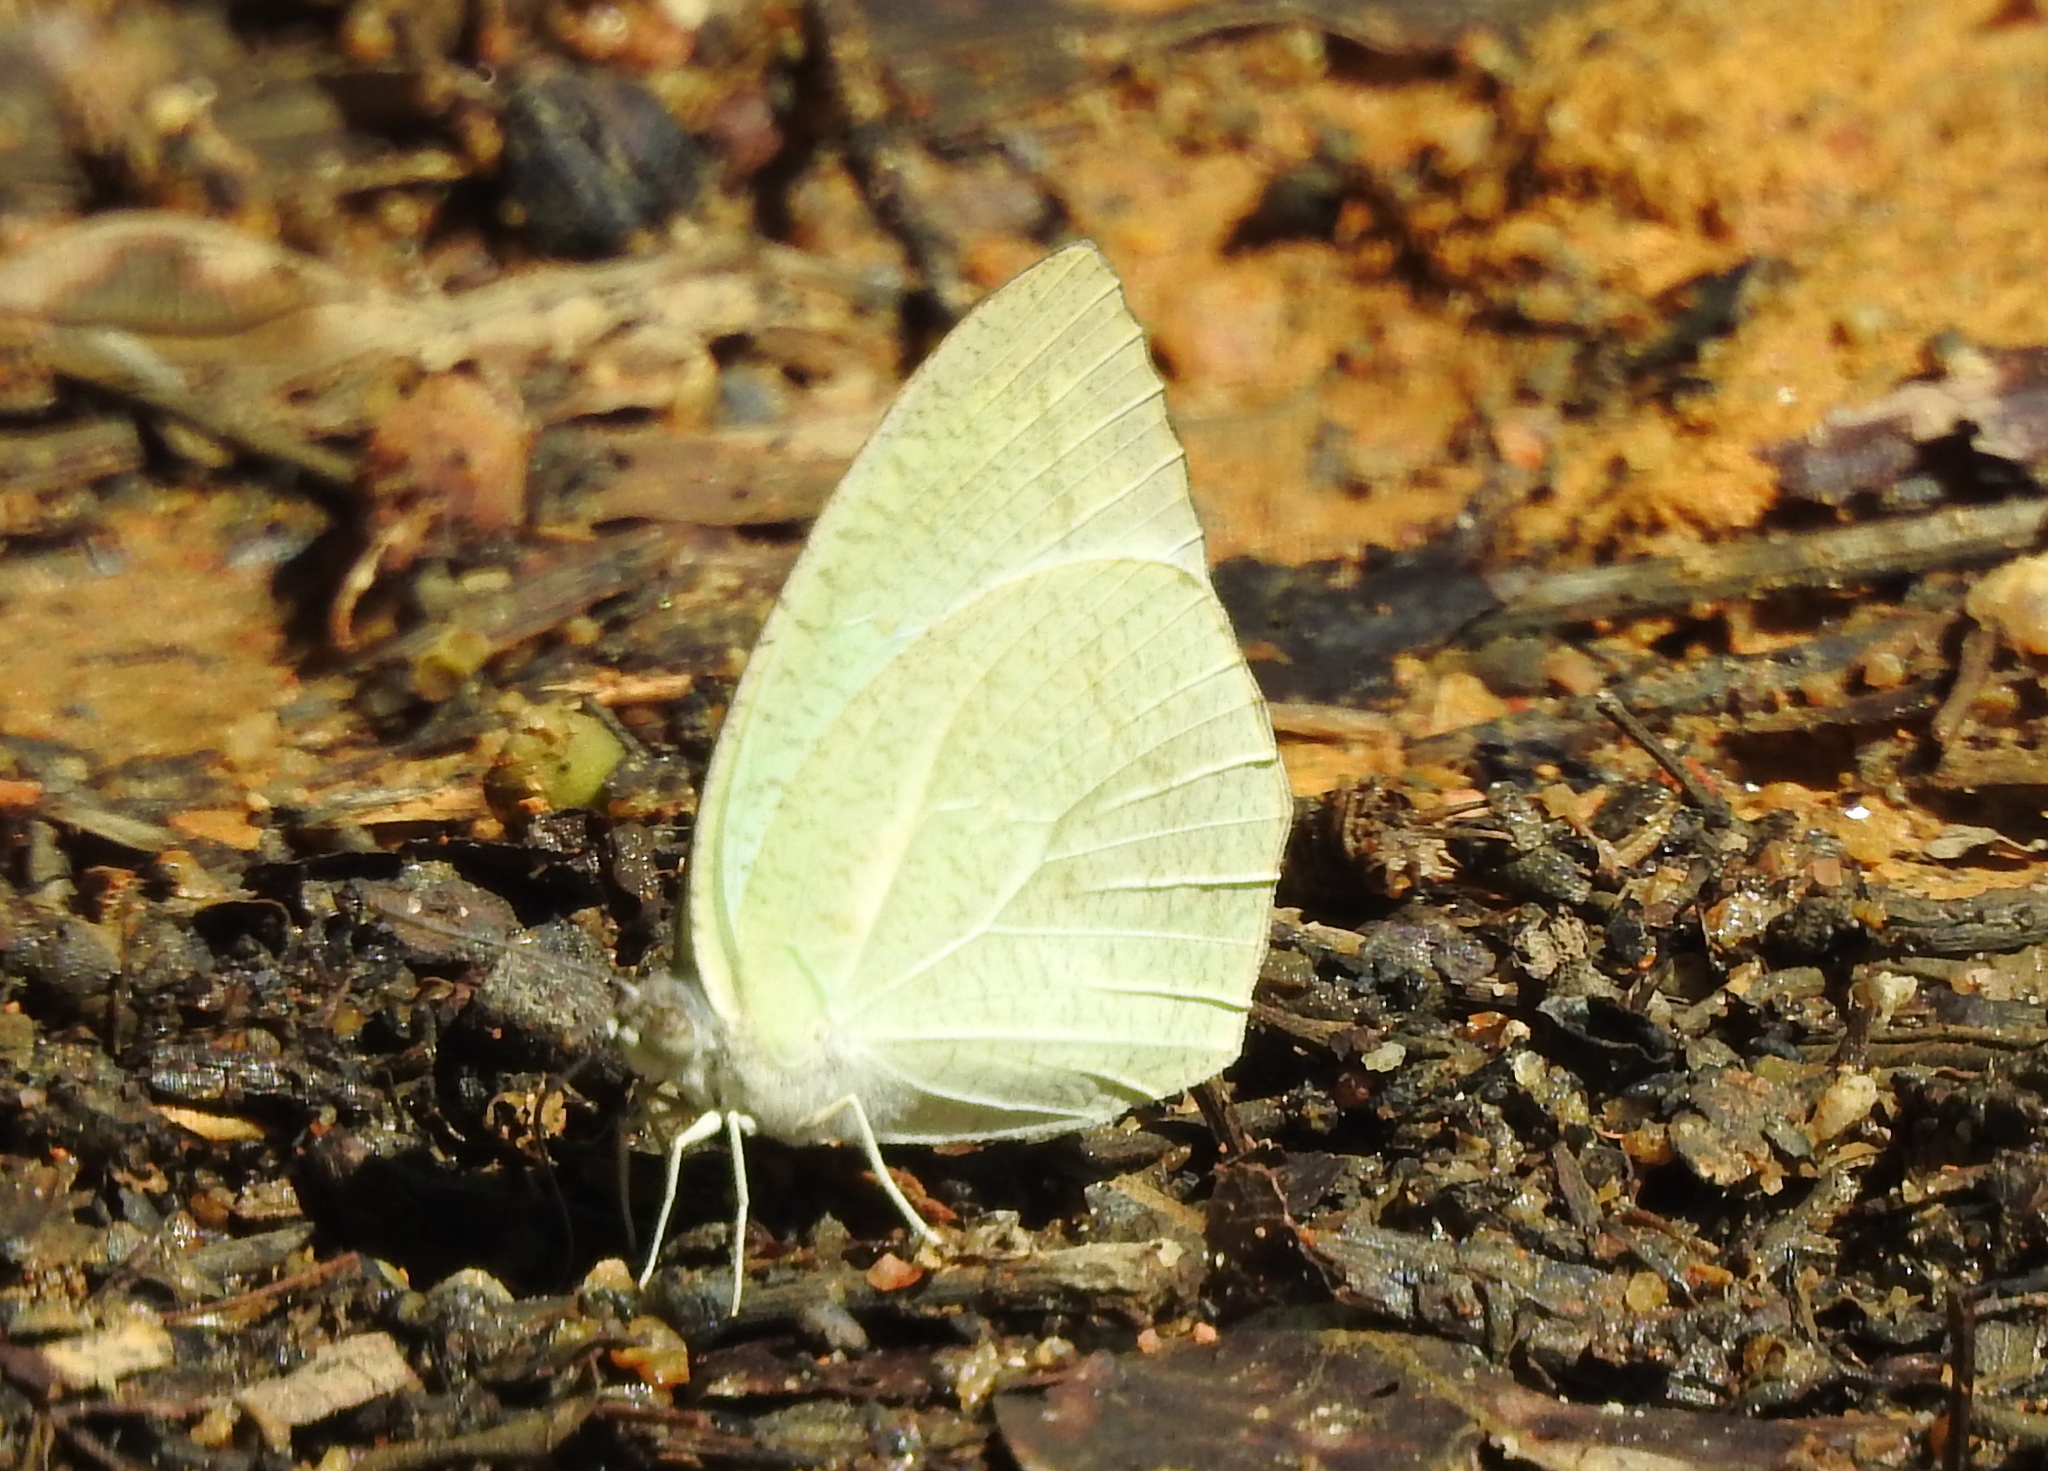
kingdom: Animalia
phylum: Arthropoda
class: Insecta
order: Lepidoptera
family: Pieridae
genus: Catopsilia
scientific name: Catopsilia pyranthe
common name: Mottled emigrant
